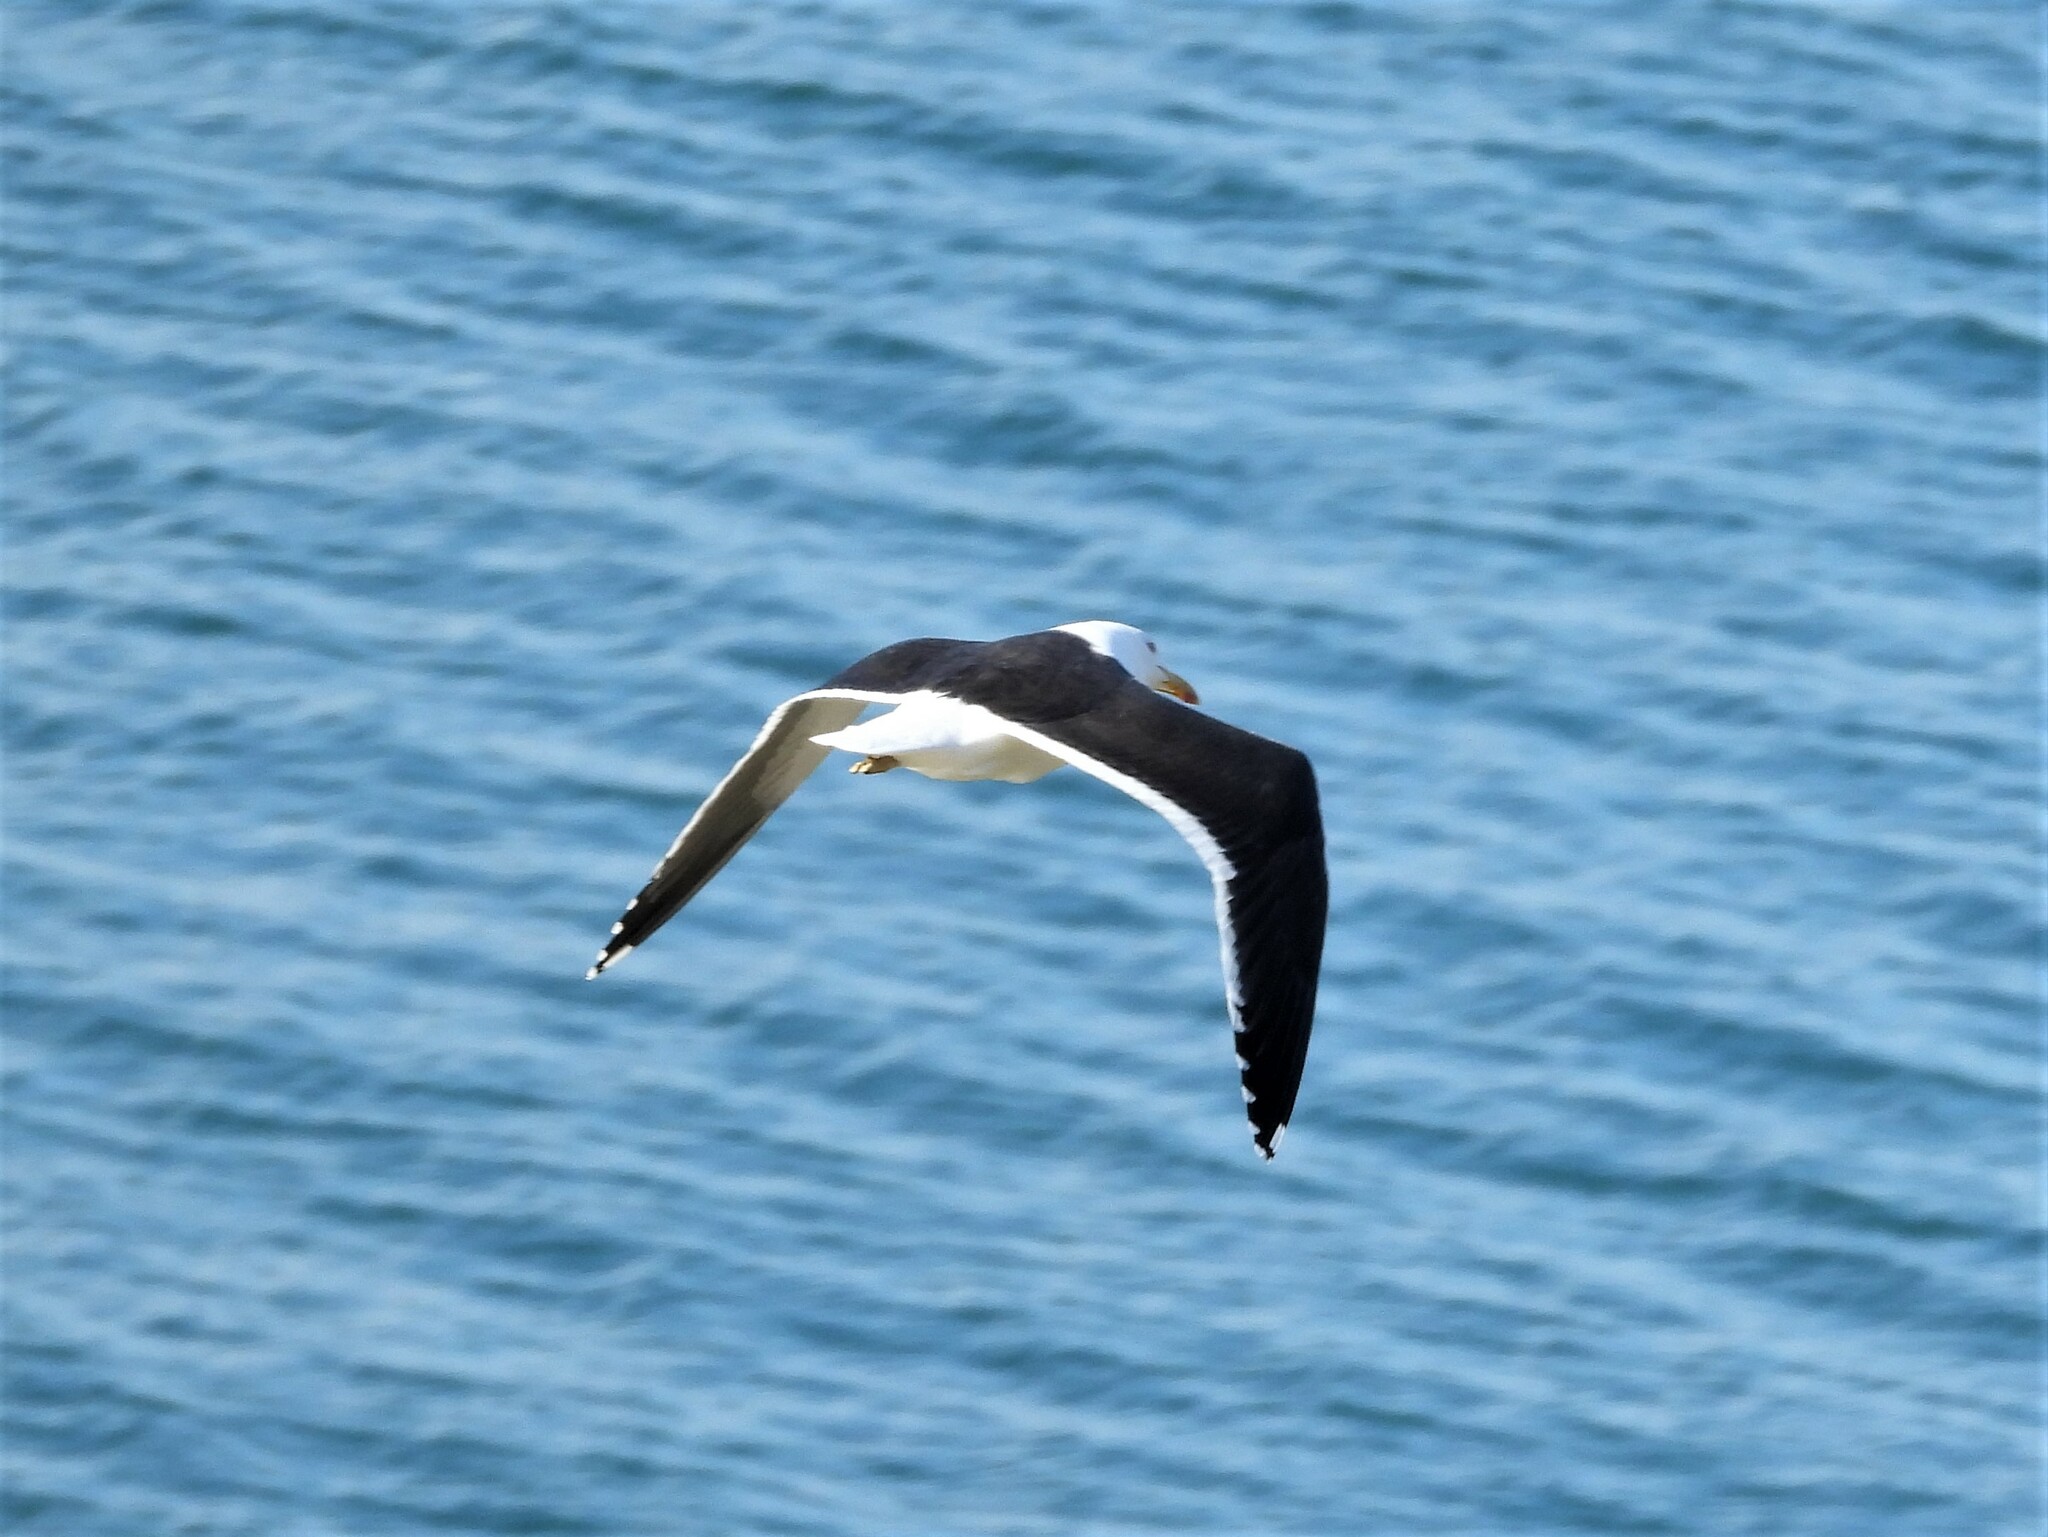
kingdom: Animalia
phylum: Chordata
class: Aves
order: Charadriiformes
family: Laridae
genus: Larus
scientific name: Larus dominicanus
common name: Kelp gull
